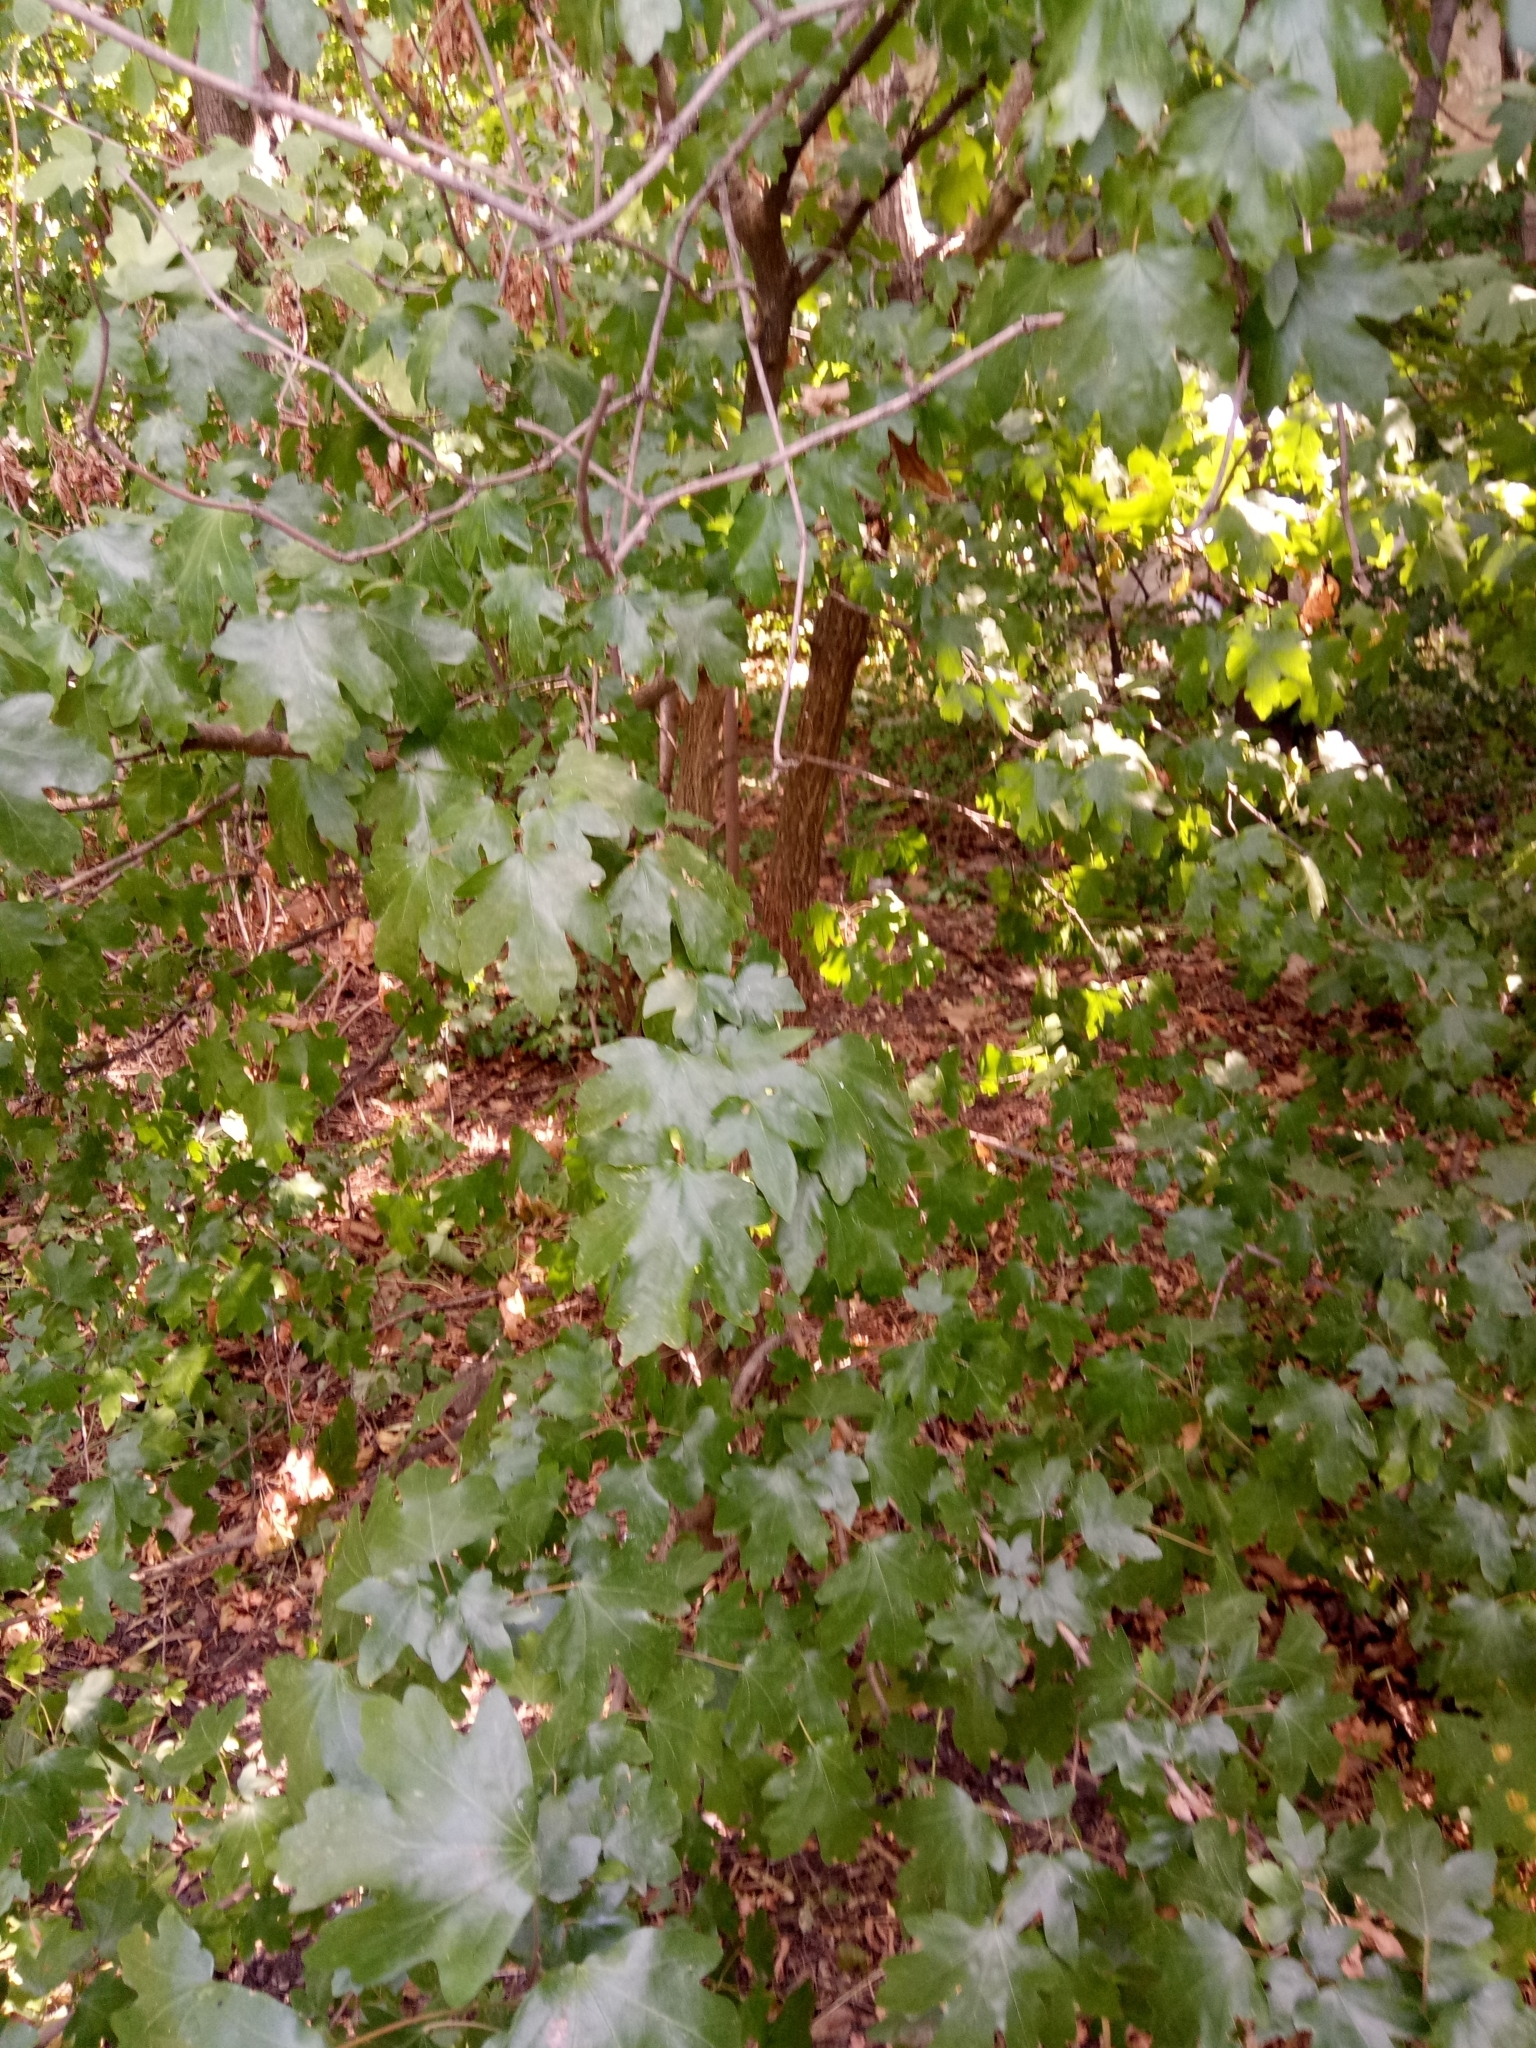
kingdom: Plantae
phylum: Tracheophyta
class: Magnoliopsida
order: Sapindales
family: Sapindaceae
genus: Acer
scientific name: Acer campestre
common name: Field maple
